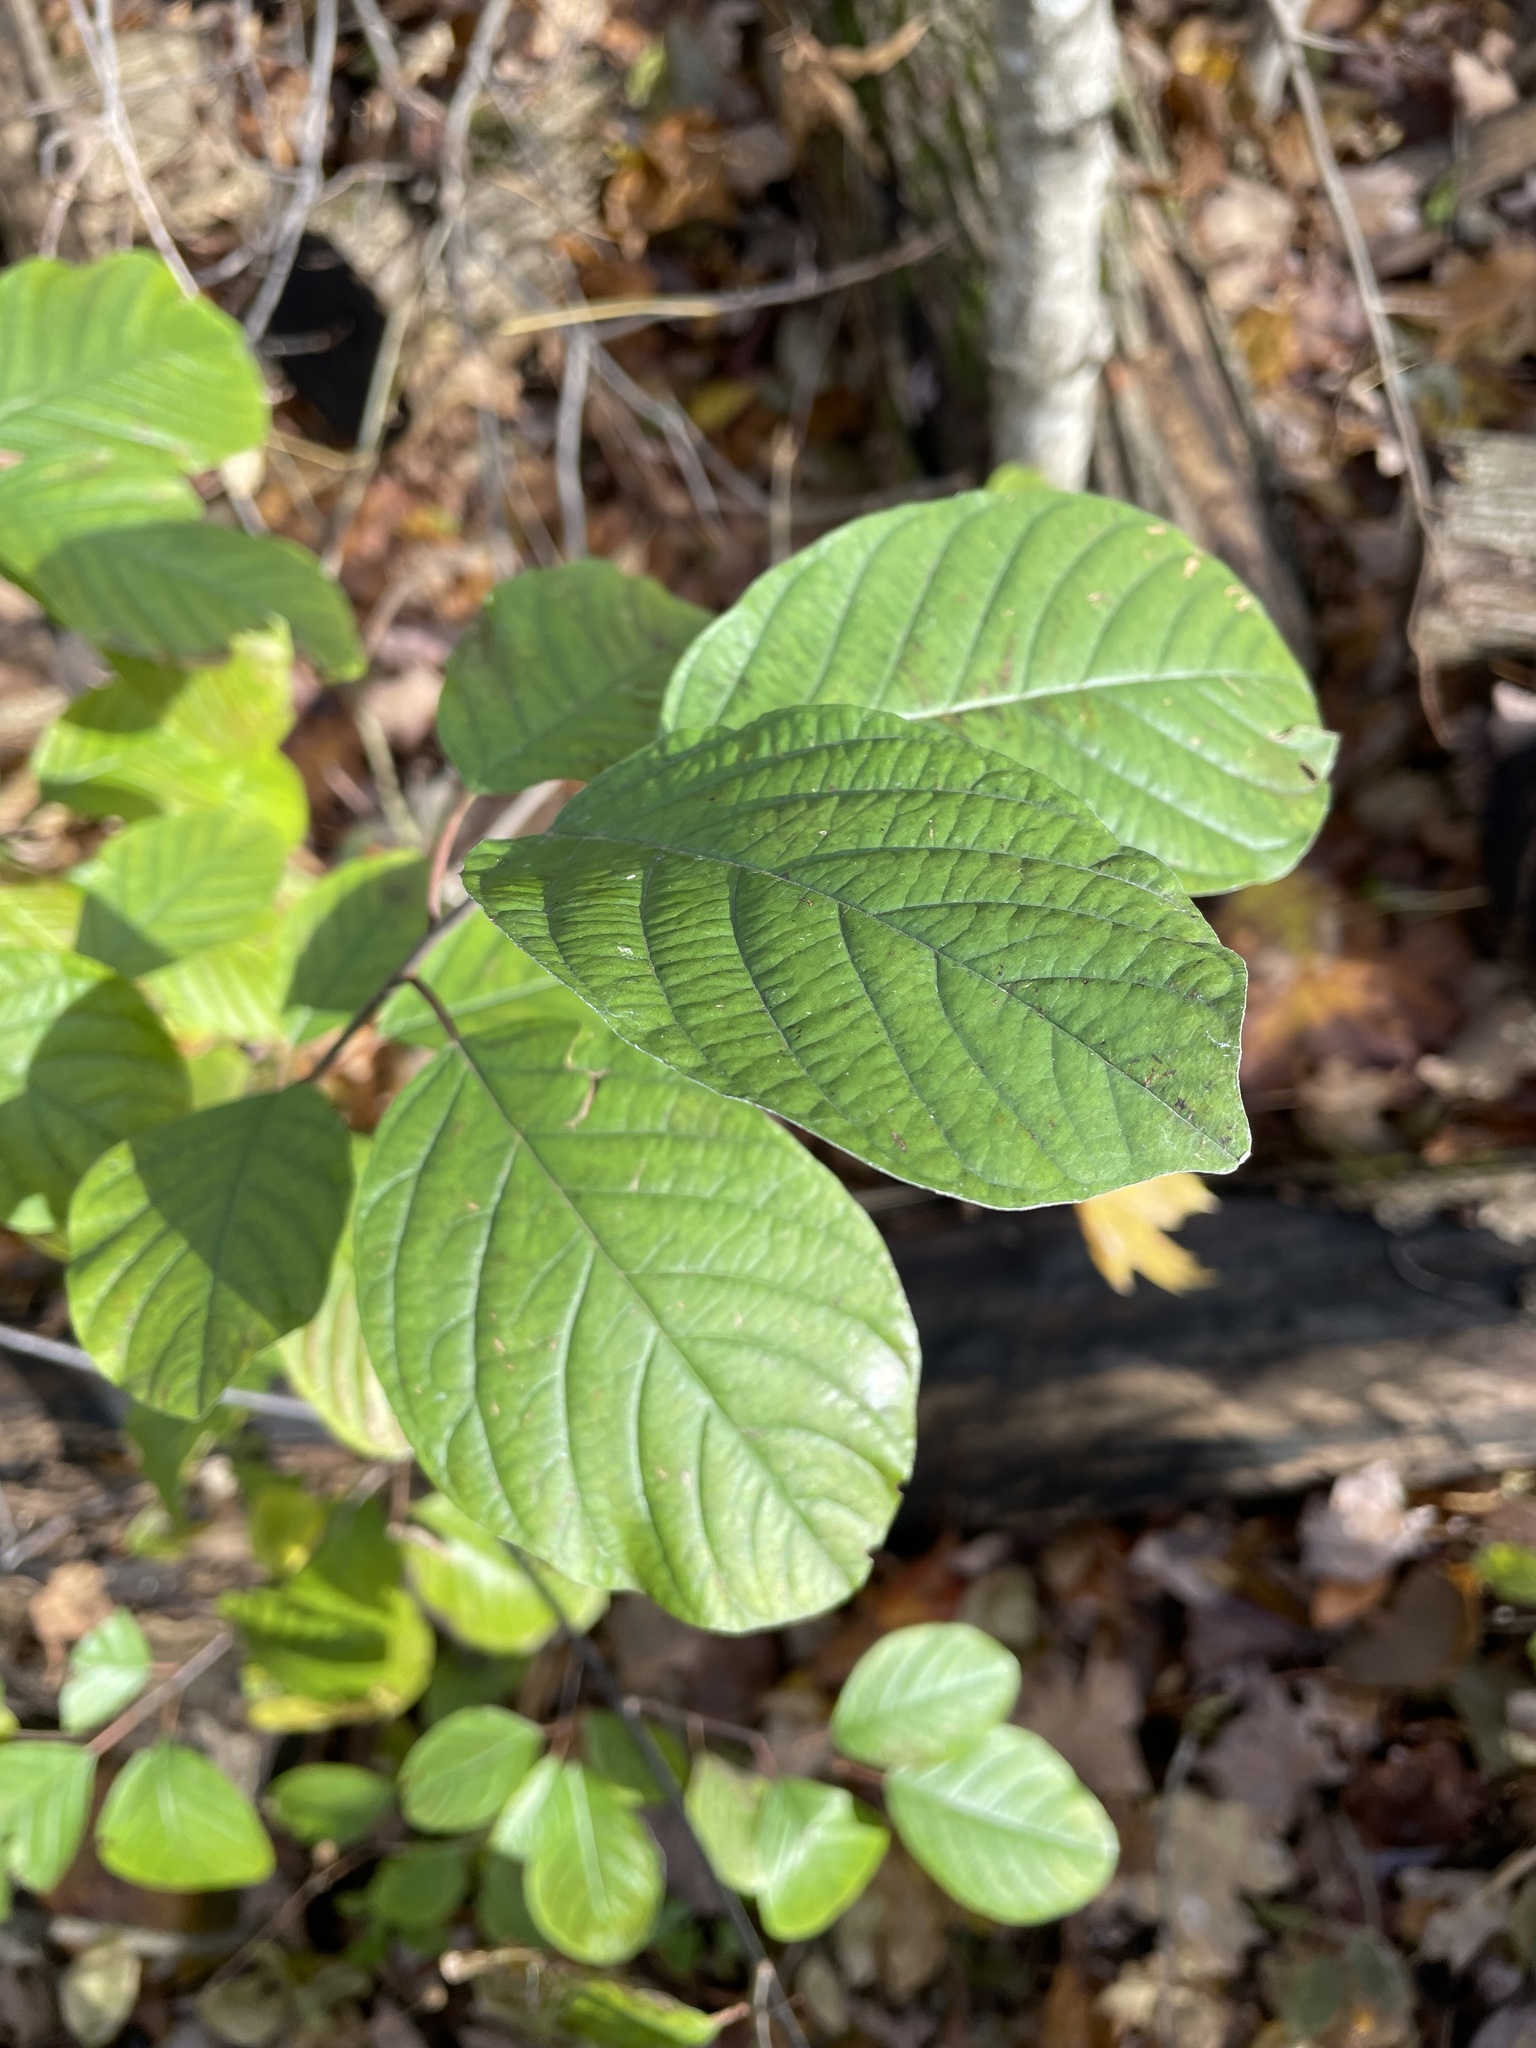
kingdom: Plantae
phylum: Tracheophyta
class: Magnoliopsida
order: Rosales
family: Rhamnaceae
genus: Frangula
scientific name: Frangula alnus
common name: Alder buckthorn
